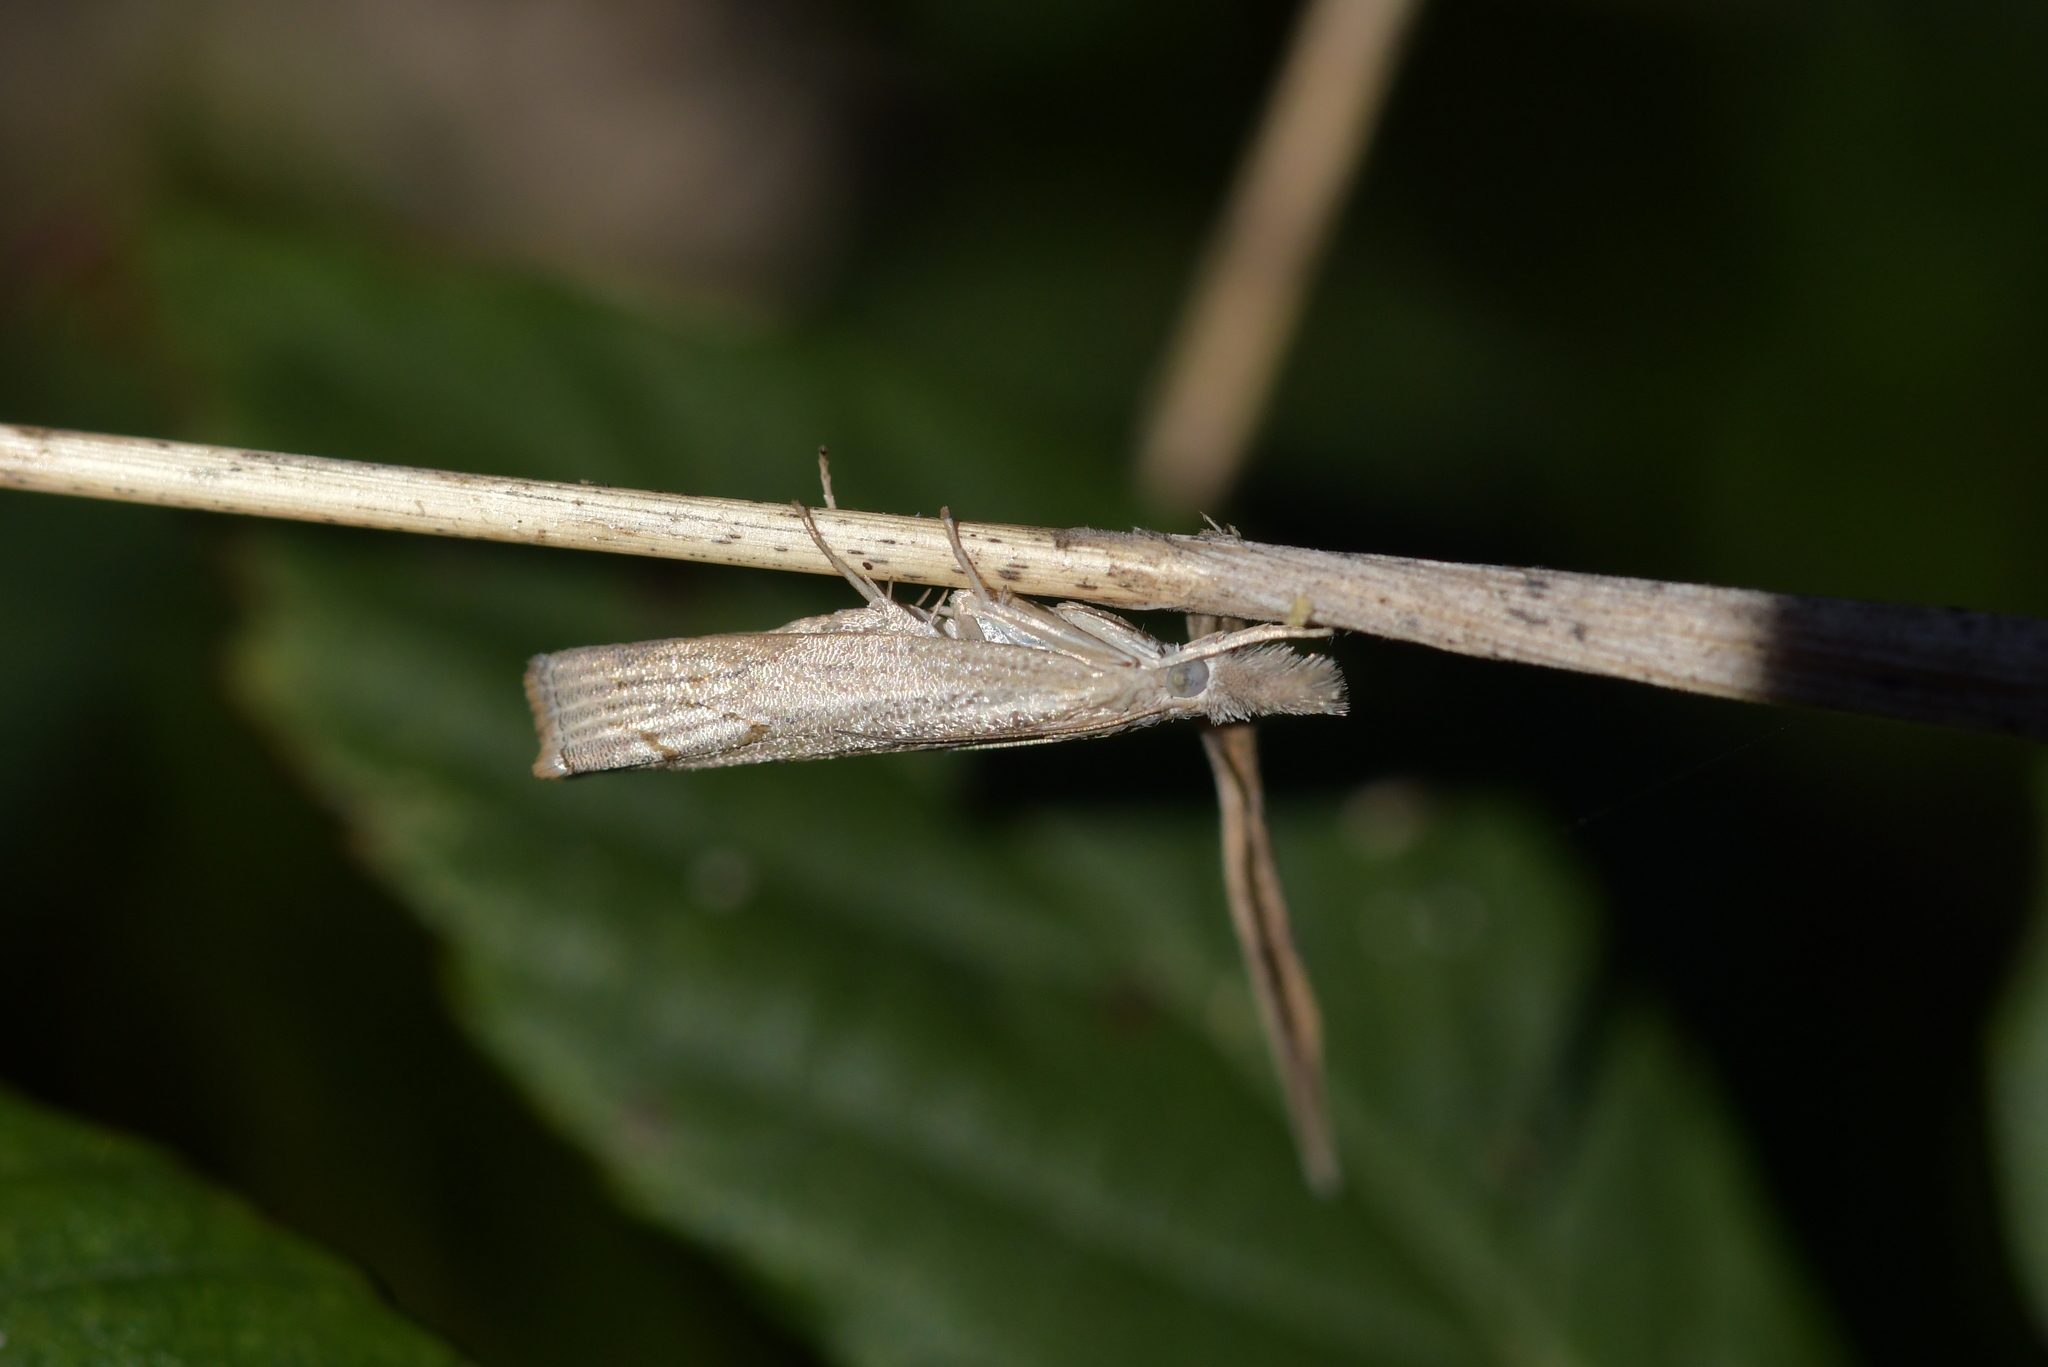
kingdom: Animalia
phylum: Arthropoda
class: Insecta
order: Lepidoptera
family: Crambidae
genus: Culladia
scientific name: Culladia cuneiferellus
